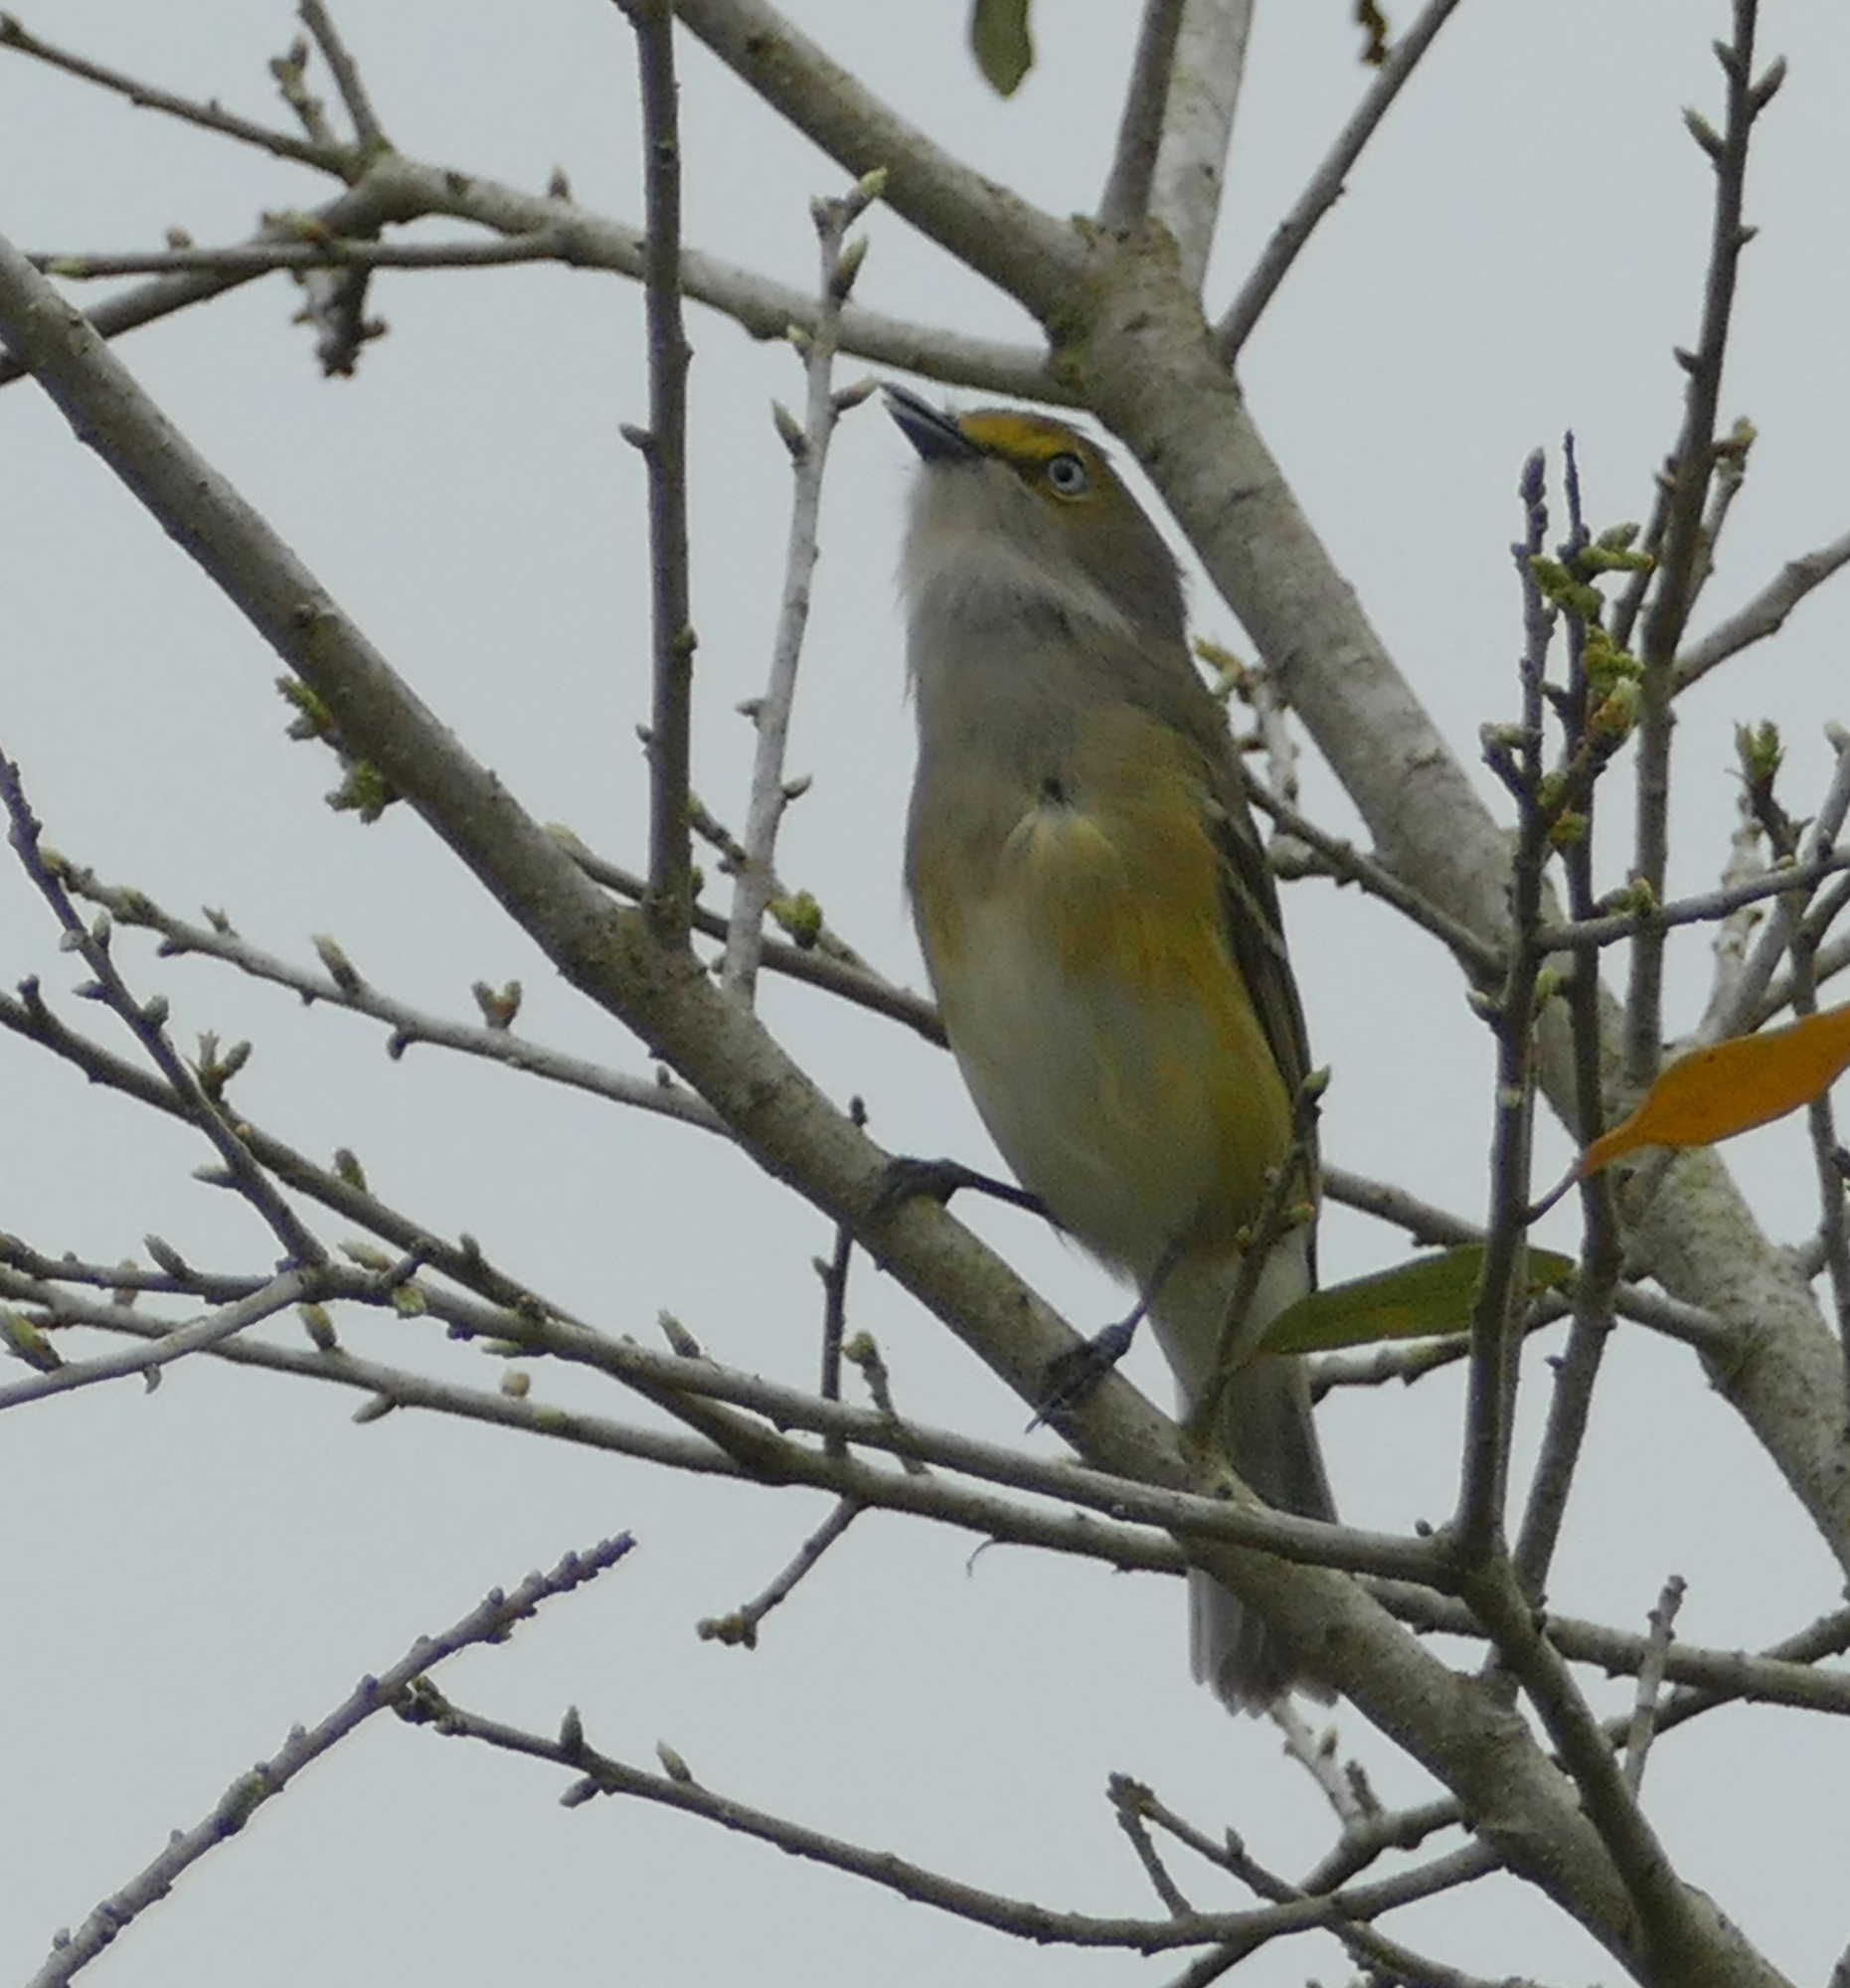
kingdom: Animalia
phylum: Chordata
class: Aves
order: Passeriformes
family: Vireonidae
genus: Vireo
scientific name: Vireo griseus
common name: White-eyed vireo
